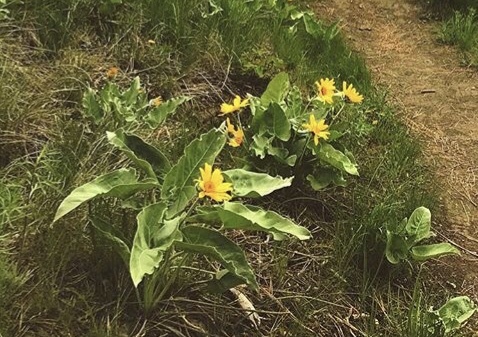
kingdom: Plantae
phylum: Tracheophyta
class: Magnoliopsida
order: Asterales
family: Asteraceae
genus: Wyethia
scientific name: Wyethia sagittata
